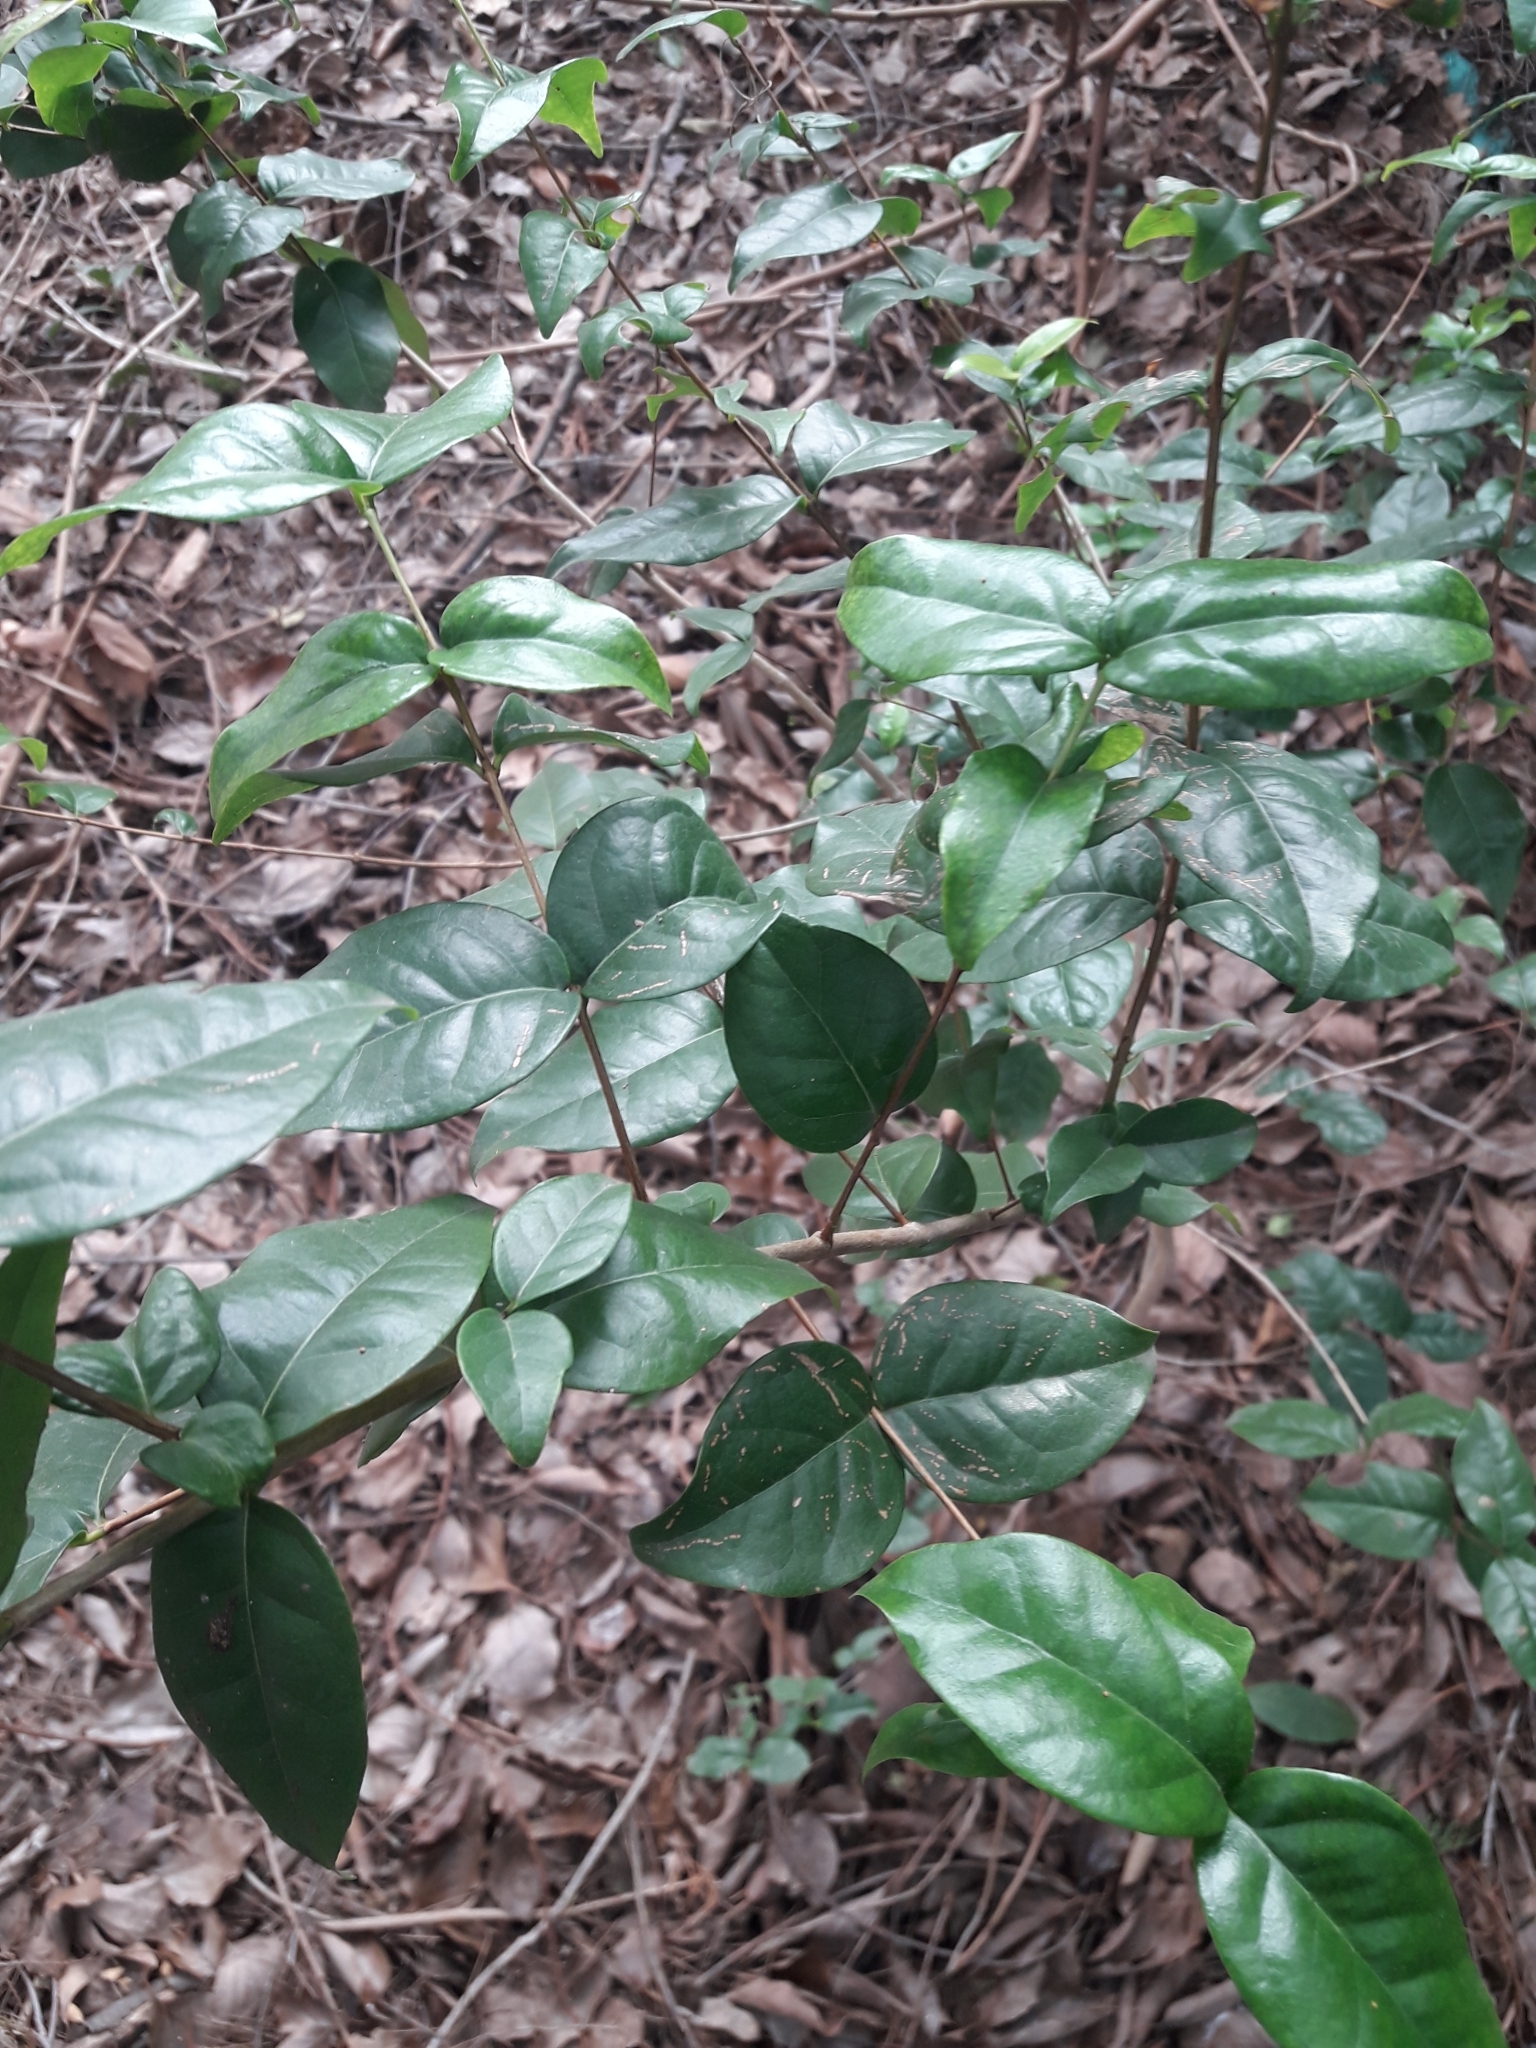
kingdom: Plantae
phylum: Tracheophyta
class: Magnoliopsida
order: Myrtales
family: Myrtaceae
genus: Eugenia
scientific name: Eugenia uniflora
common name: Surinam cherry
